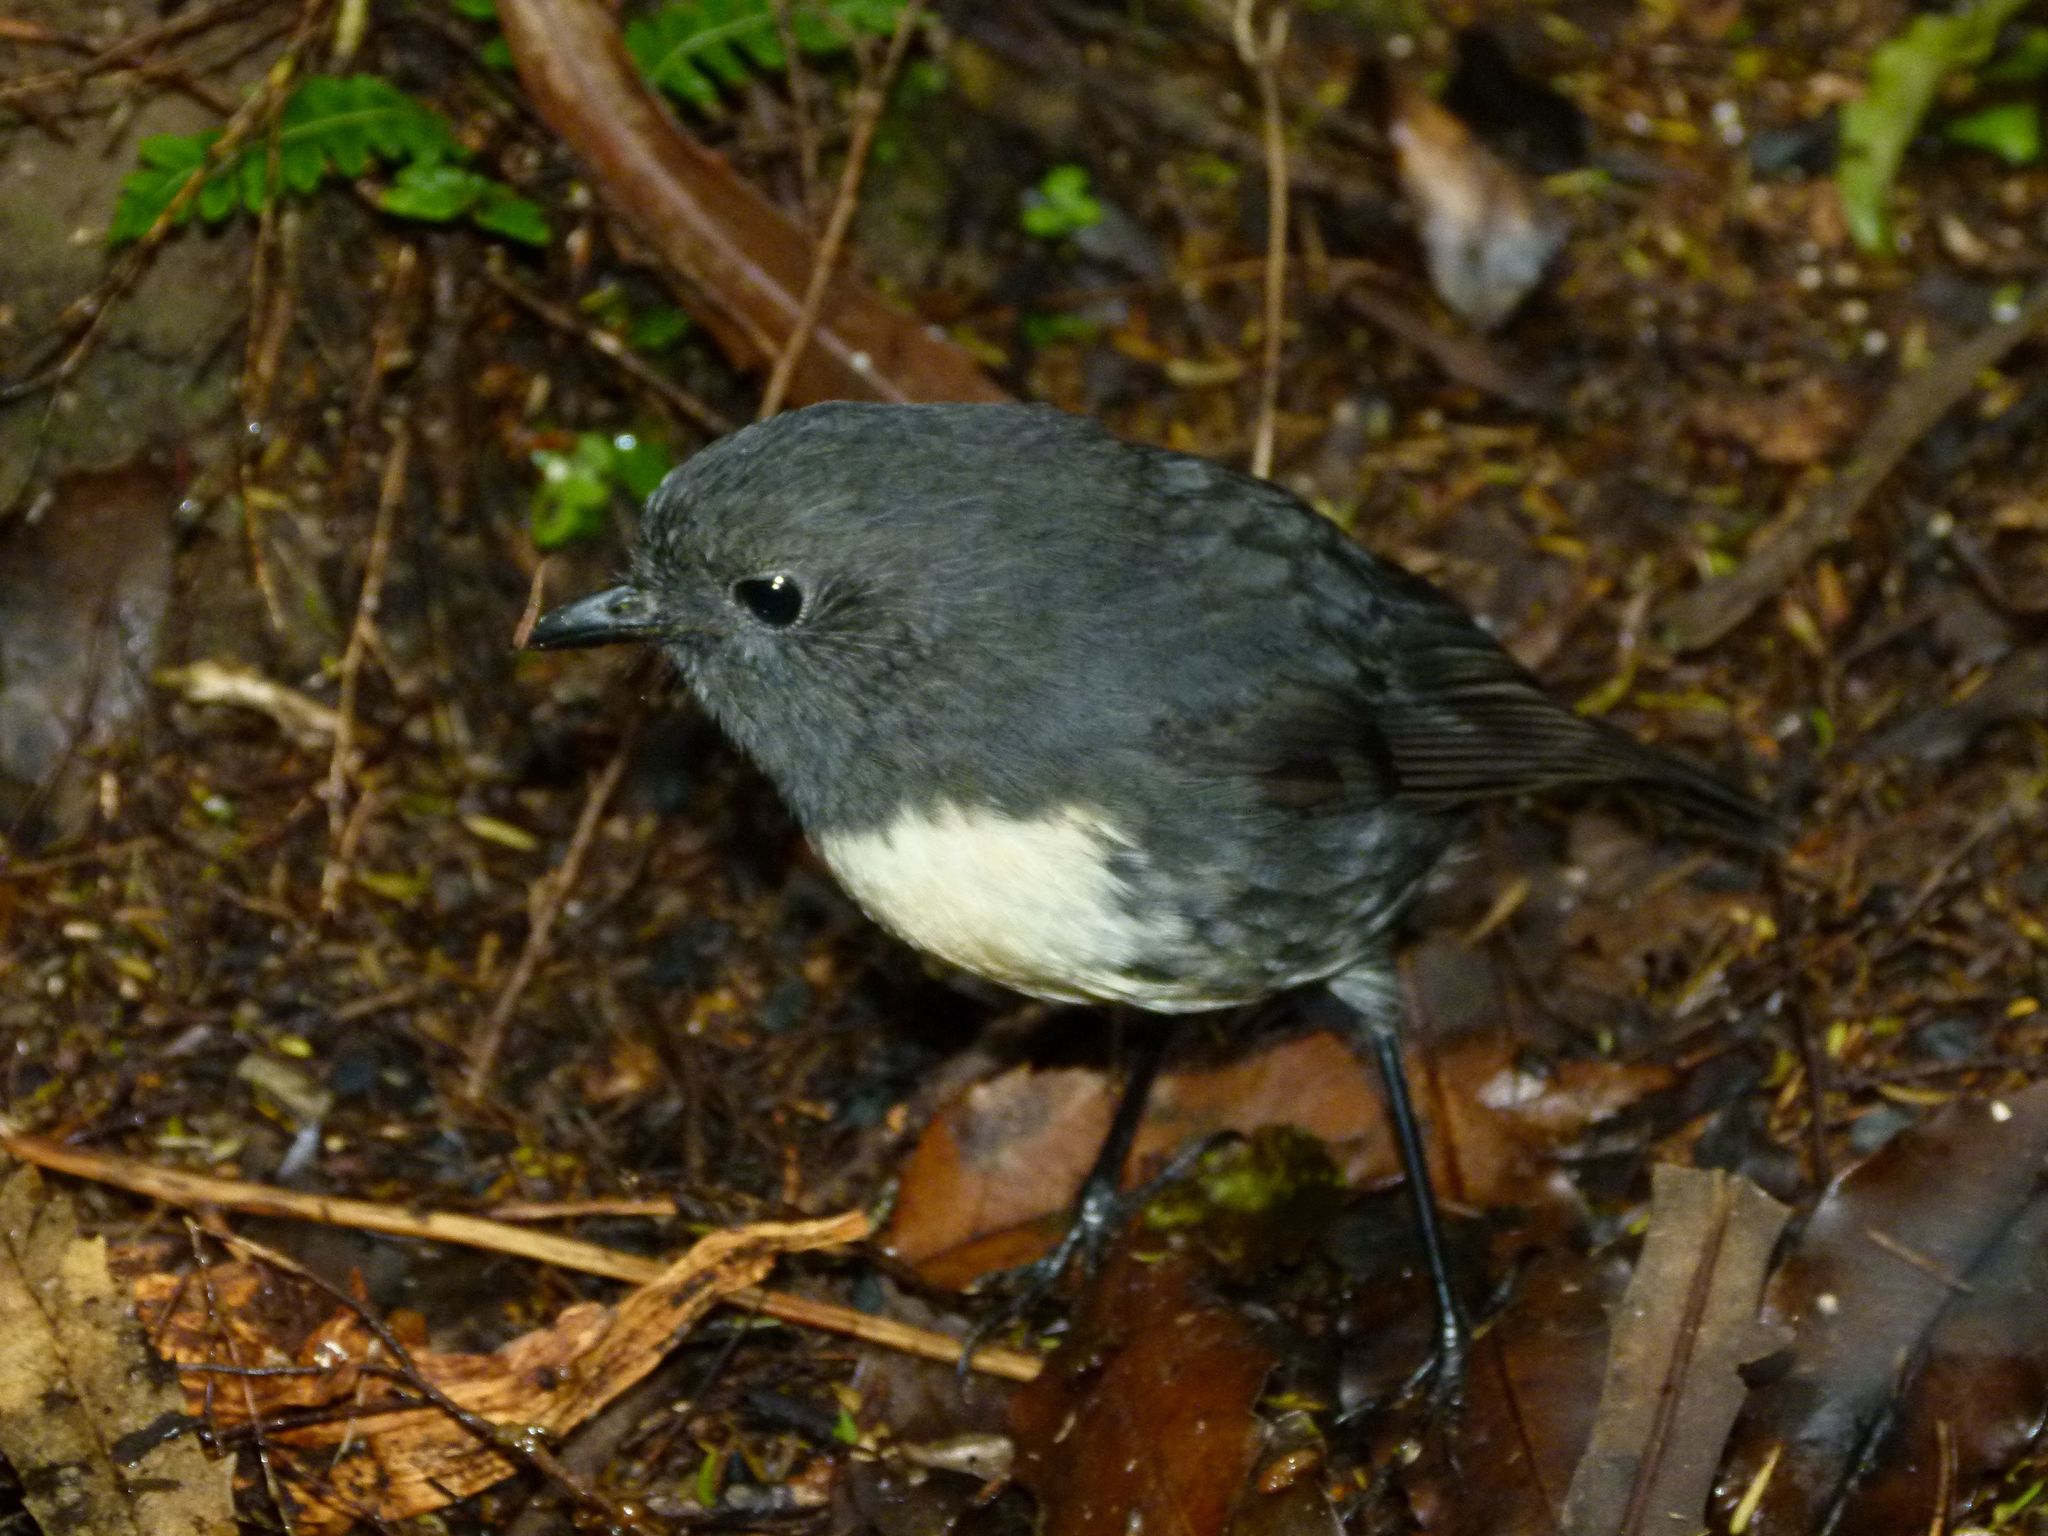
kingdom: Animalia
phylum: Chordata
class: Aves
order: Passeriformes
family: Petroicidae
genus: Petroica
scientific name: Petroica australis
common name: New zealand robin
